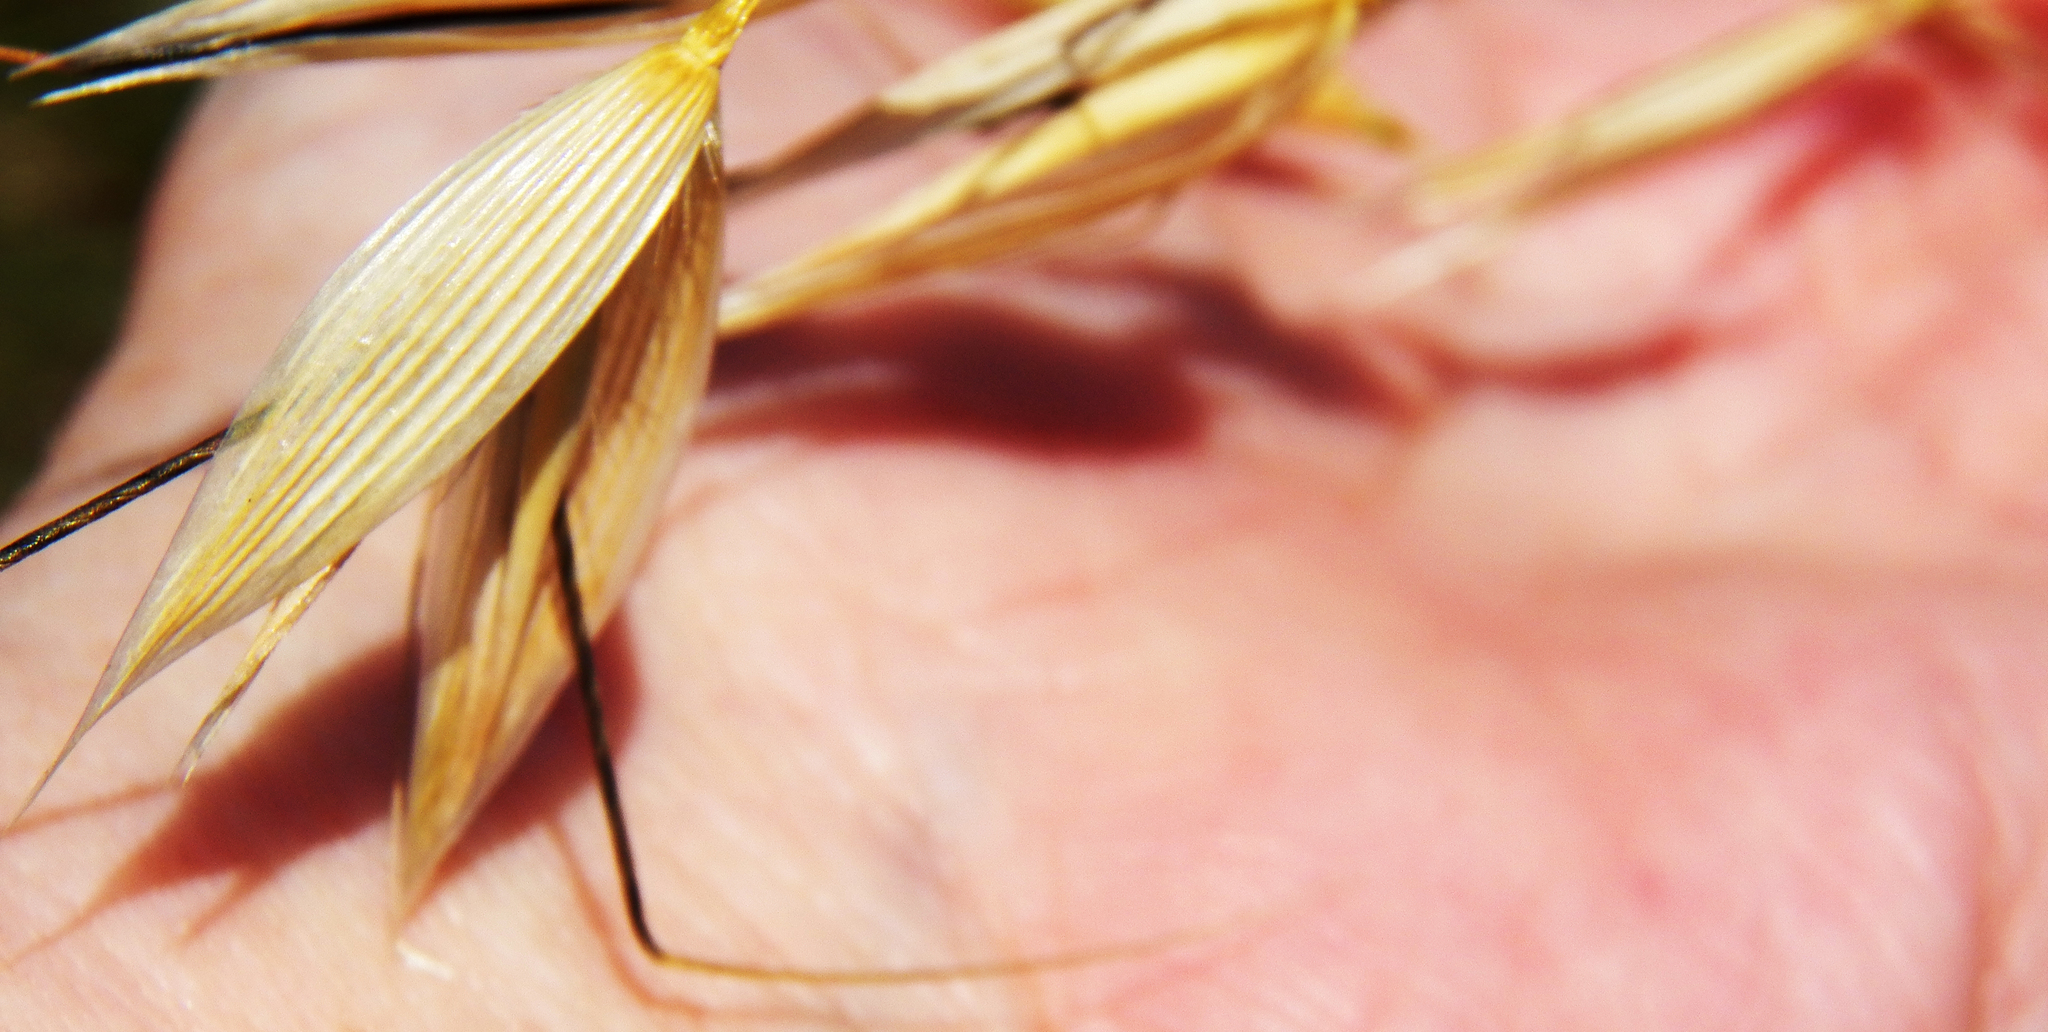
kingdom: Plantae
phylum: Tracheophyta
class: Liliopsida
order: Poales
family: Poaceae
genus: Avena
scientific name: Avena fatua
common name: Wild oat
